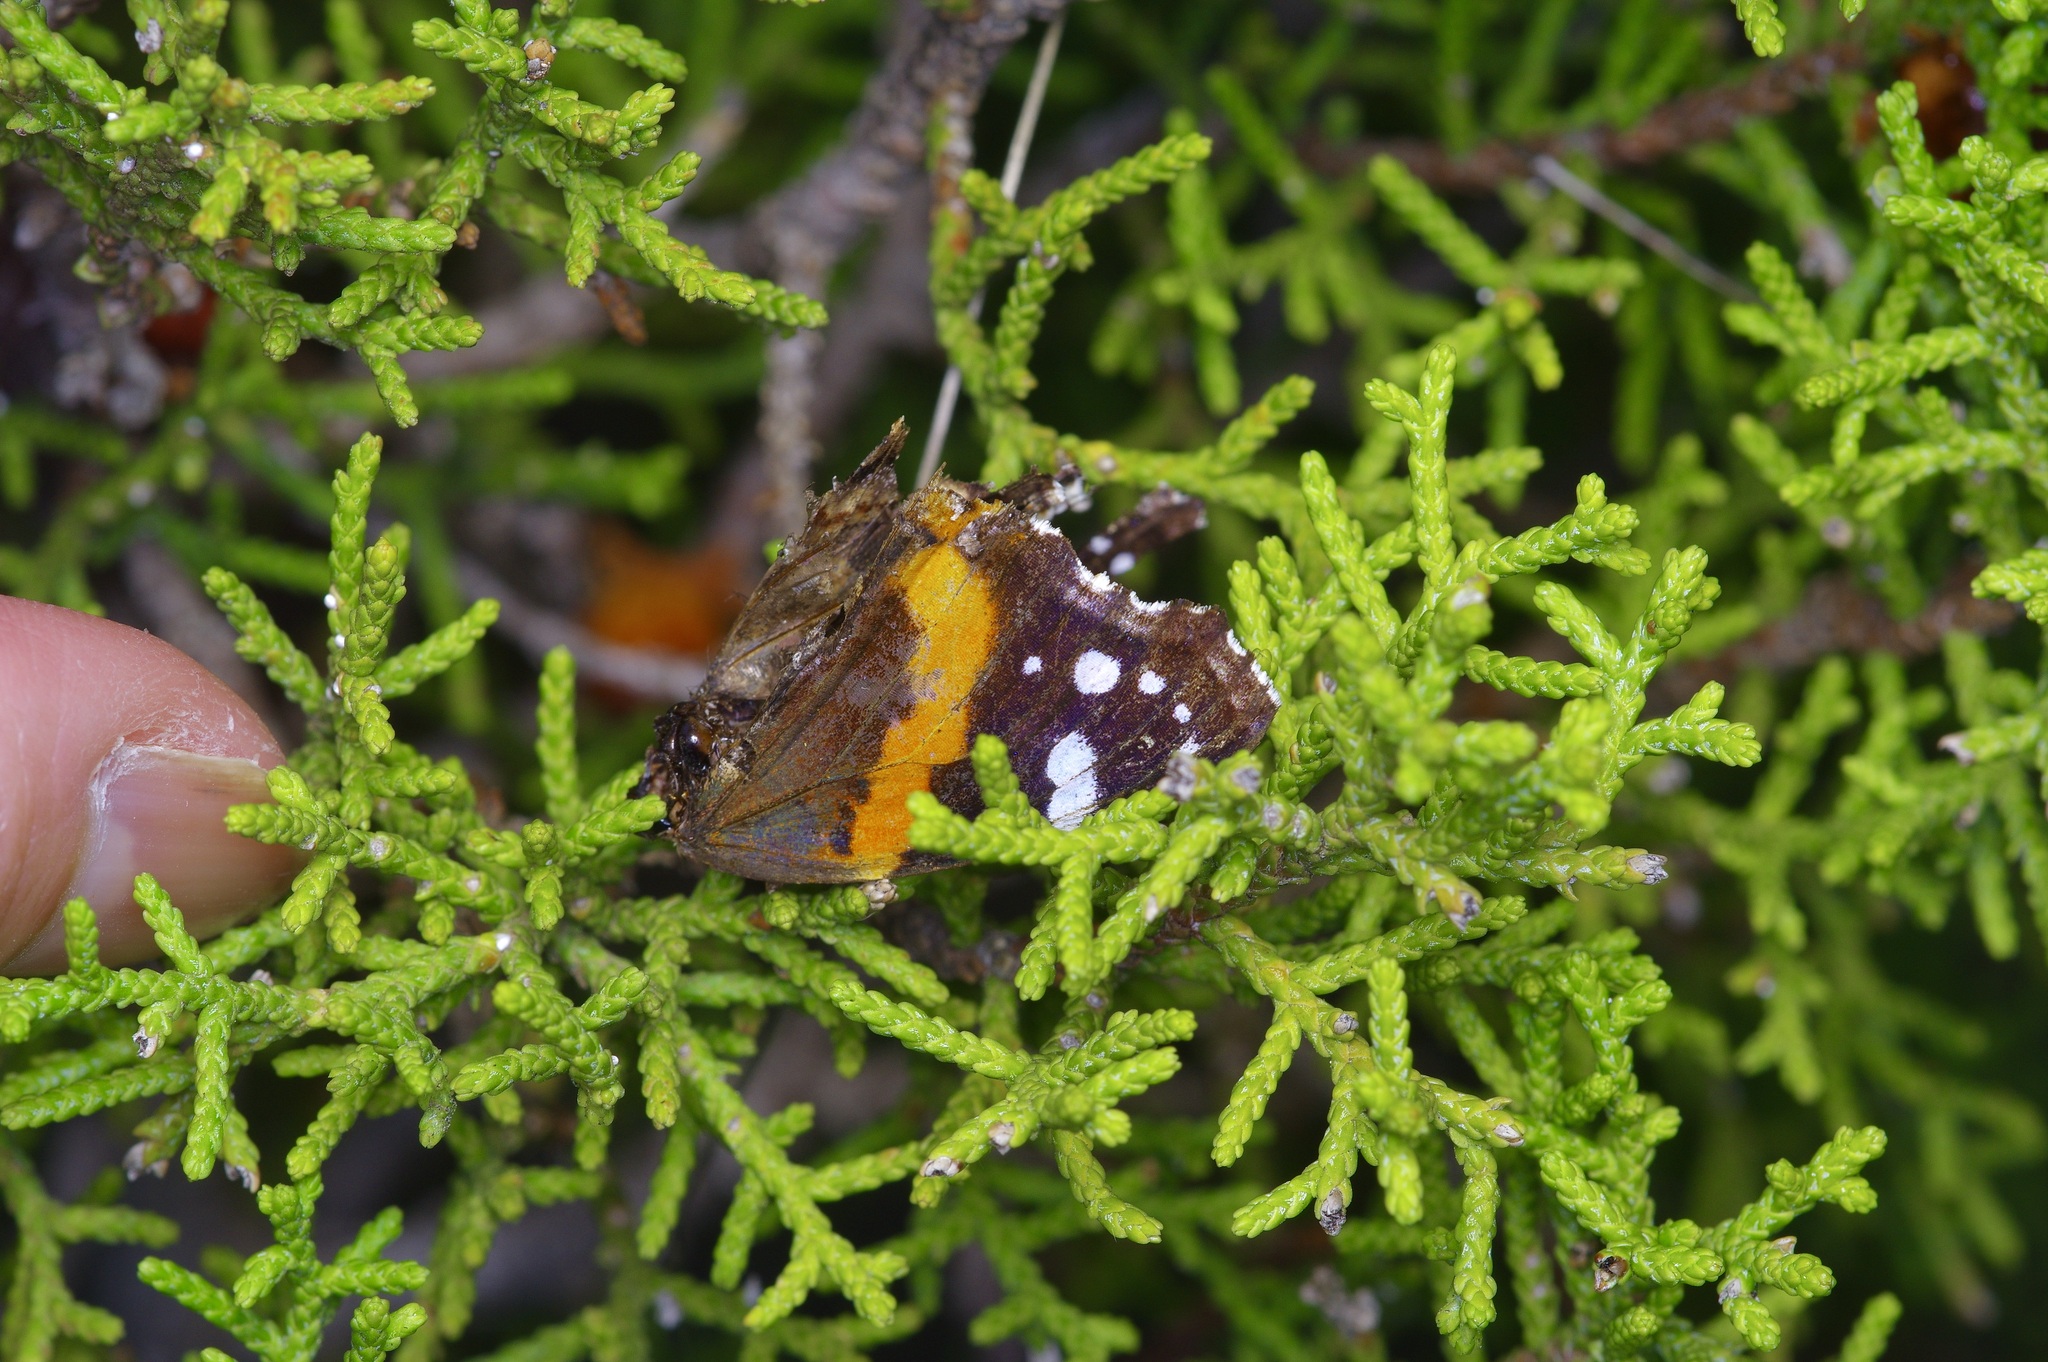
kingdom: Animalia
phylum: Arthropoda
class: Insecta
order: Lepidoptera
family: Nymphalidae
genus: Vanessa
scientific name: Vanessa atalanta
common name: Red admiral
